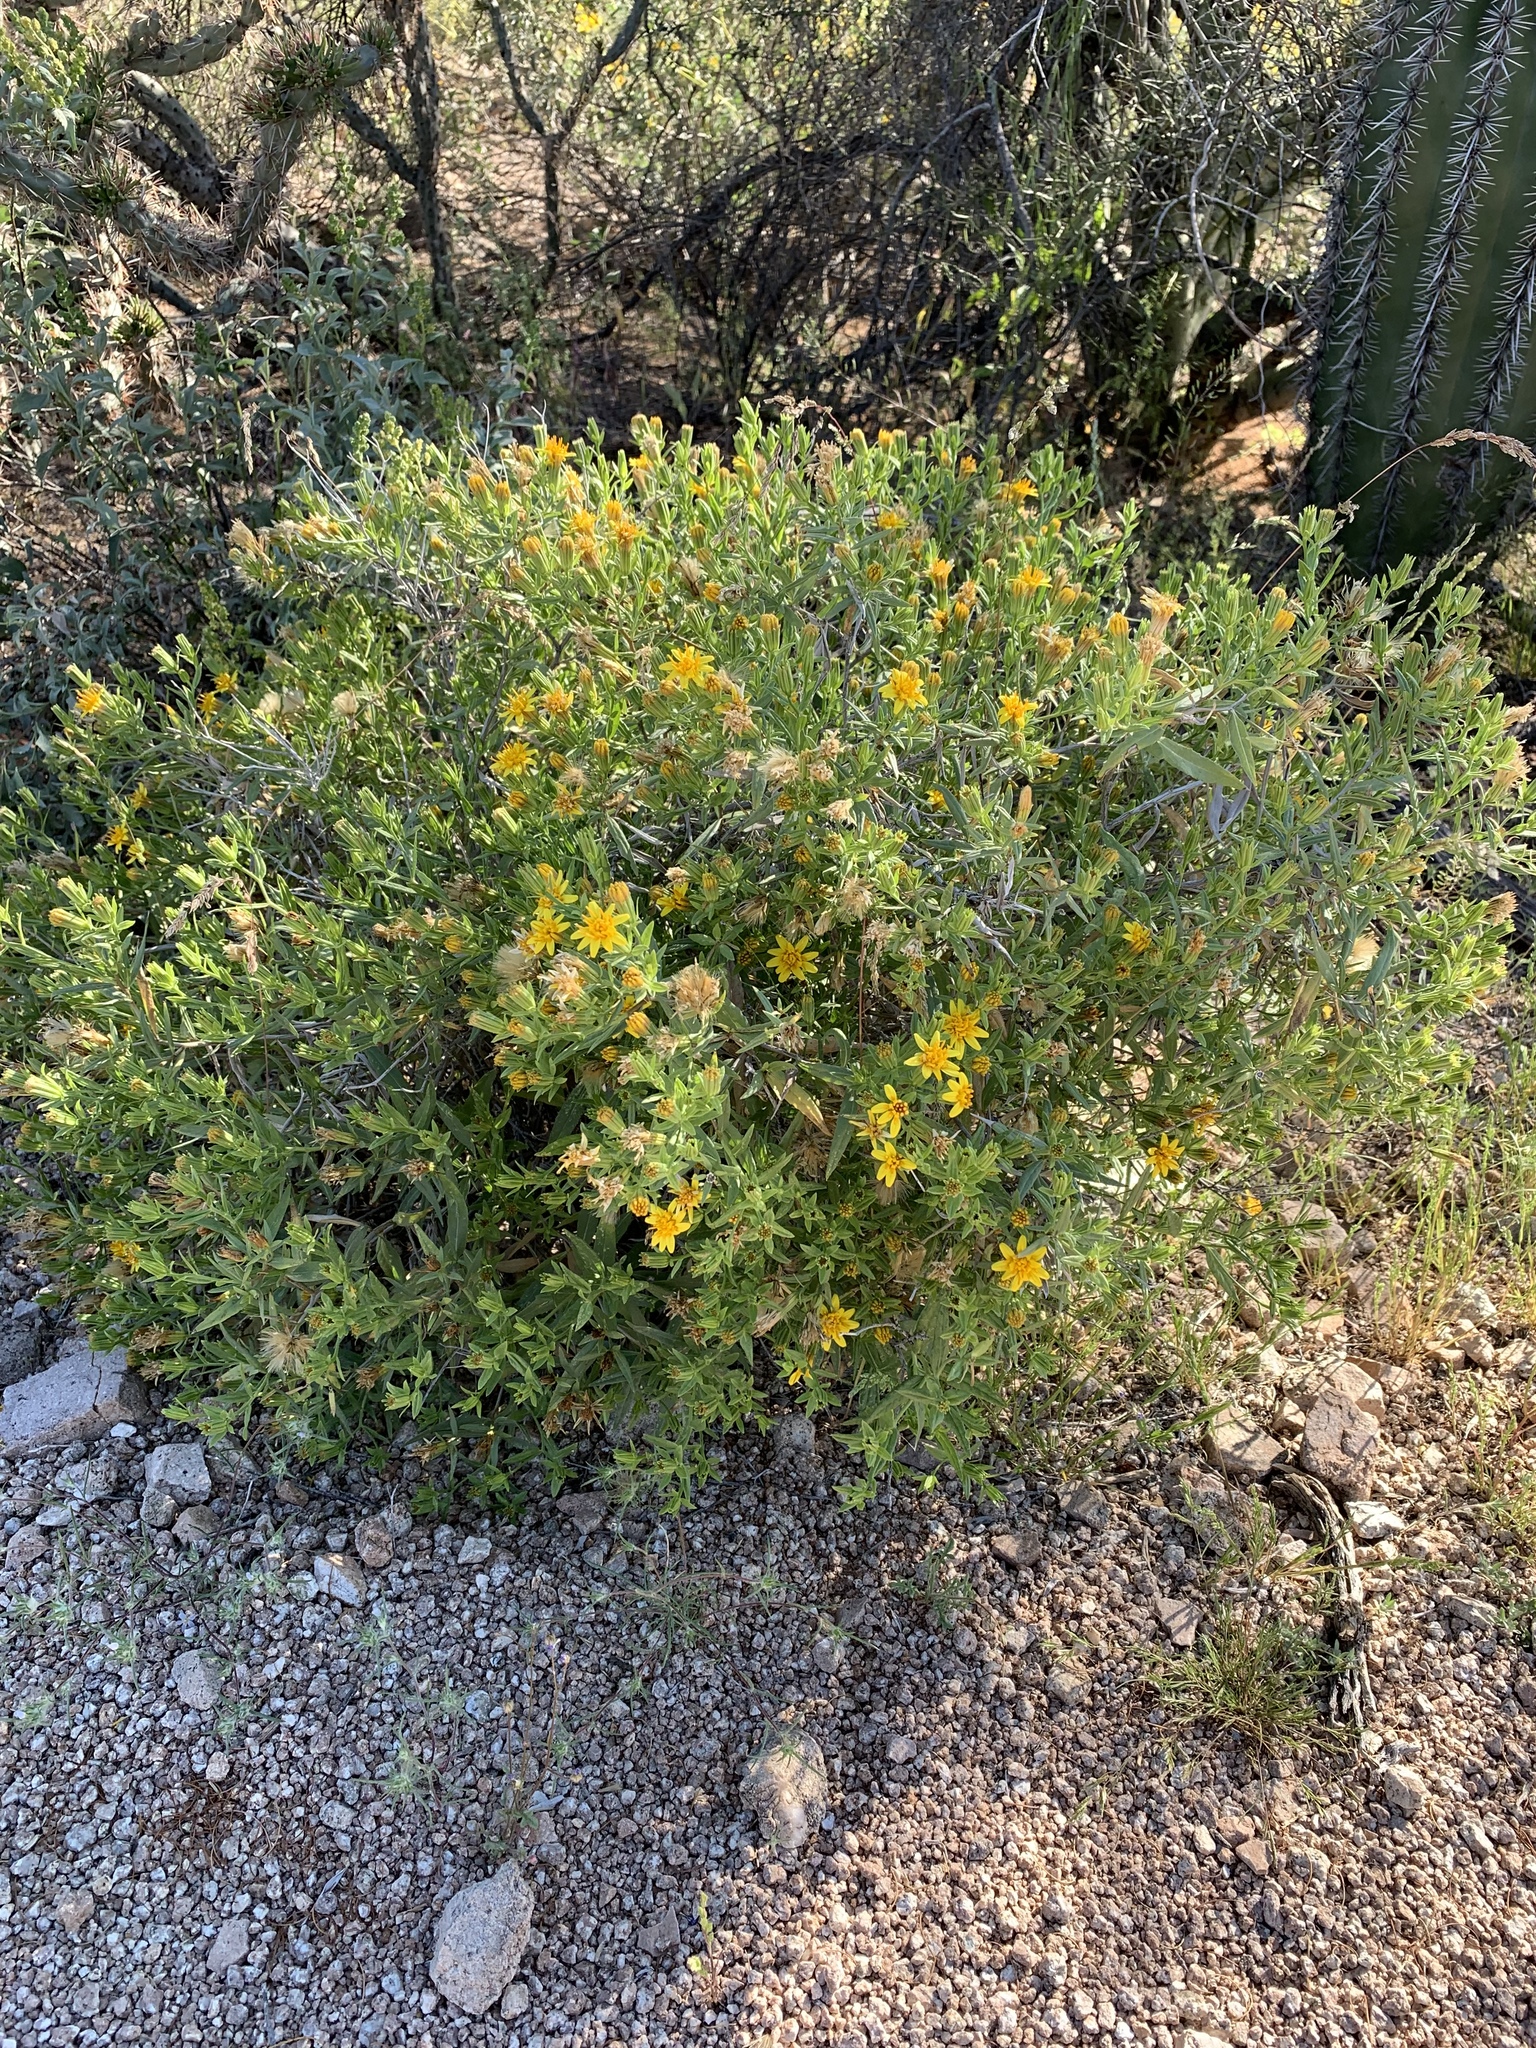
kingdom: Plantae
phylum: Tracheophyta
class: Magnoliopsida
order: Asterales
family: Asteraceae
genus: Trixis
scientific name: Trixis californica
